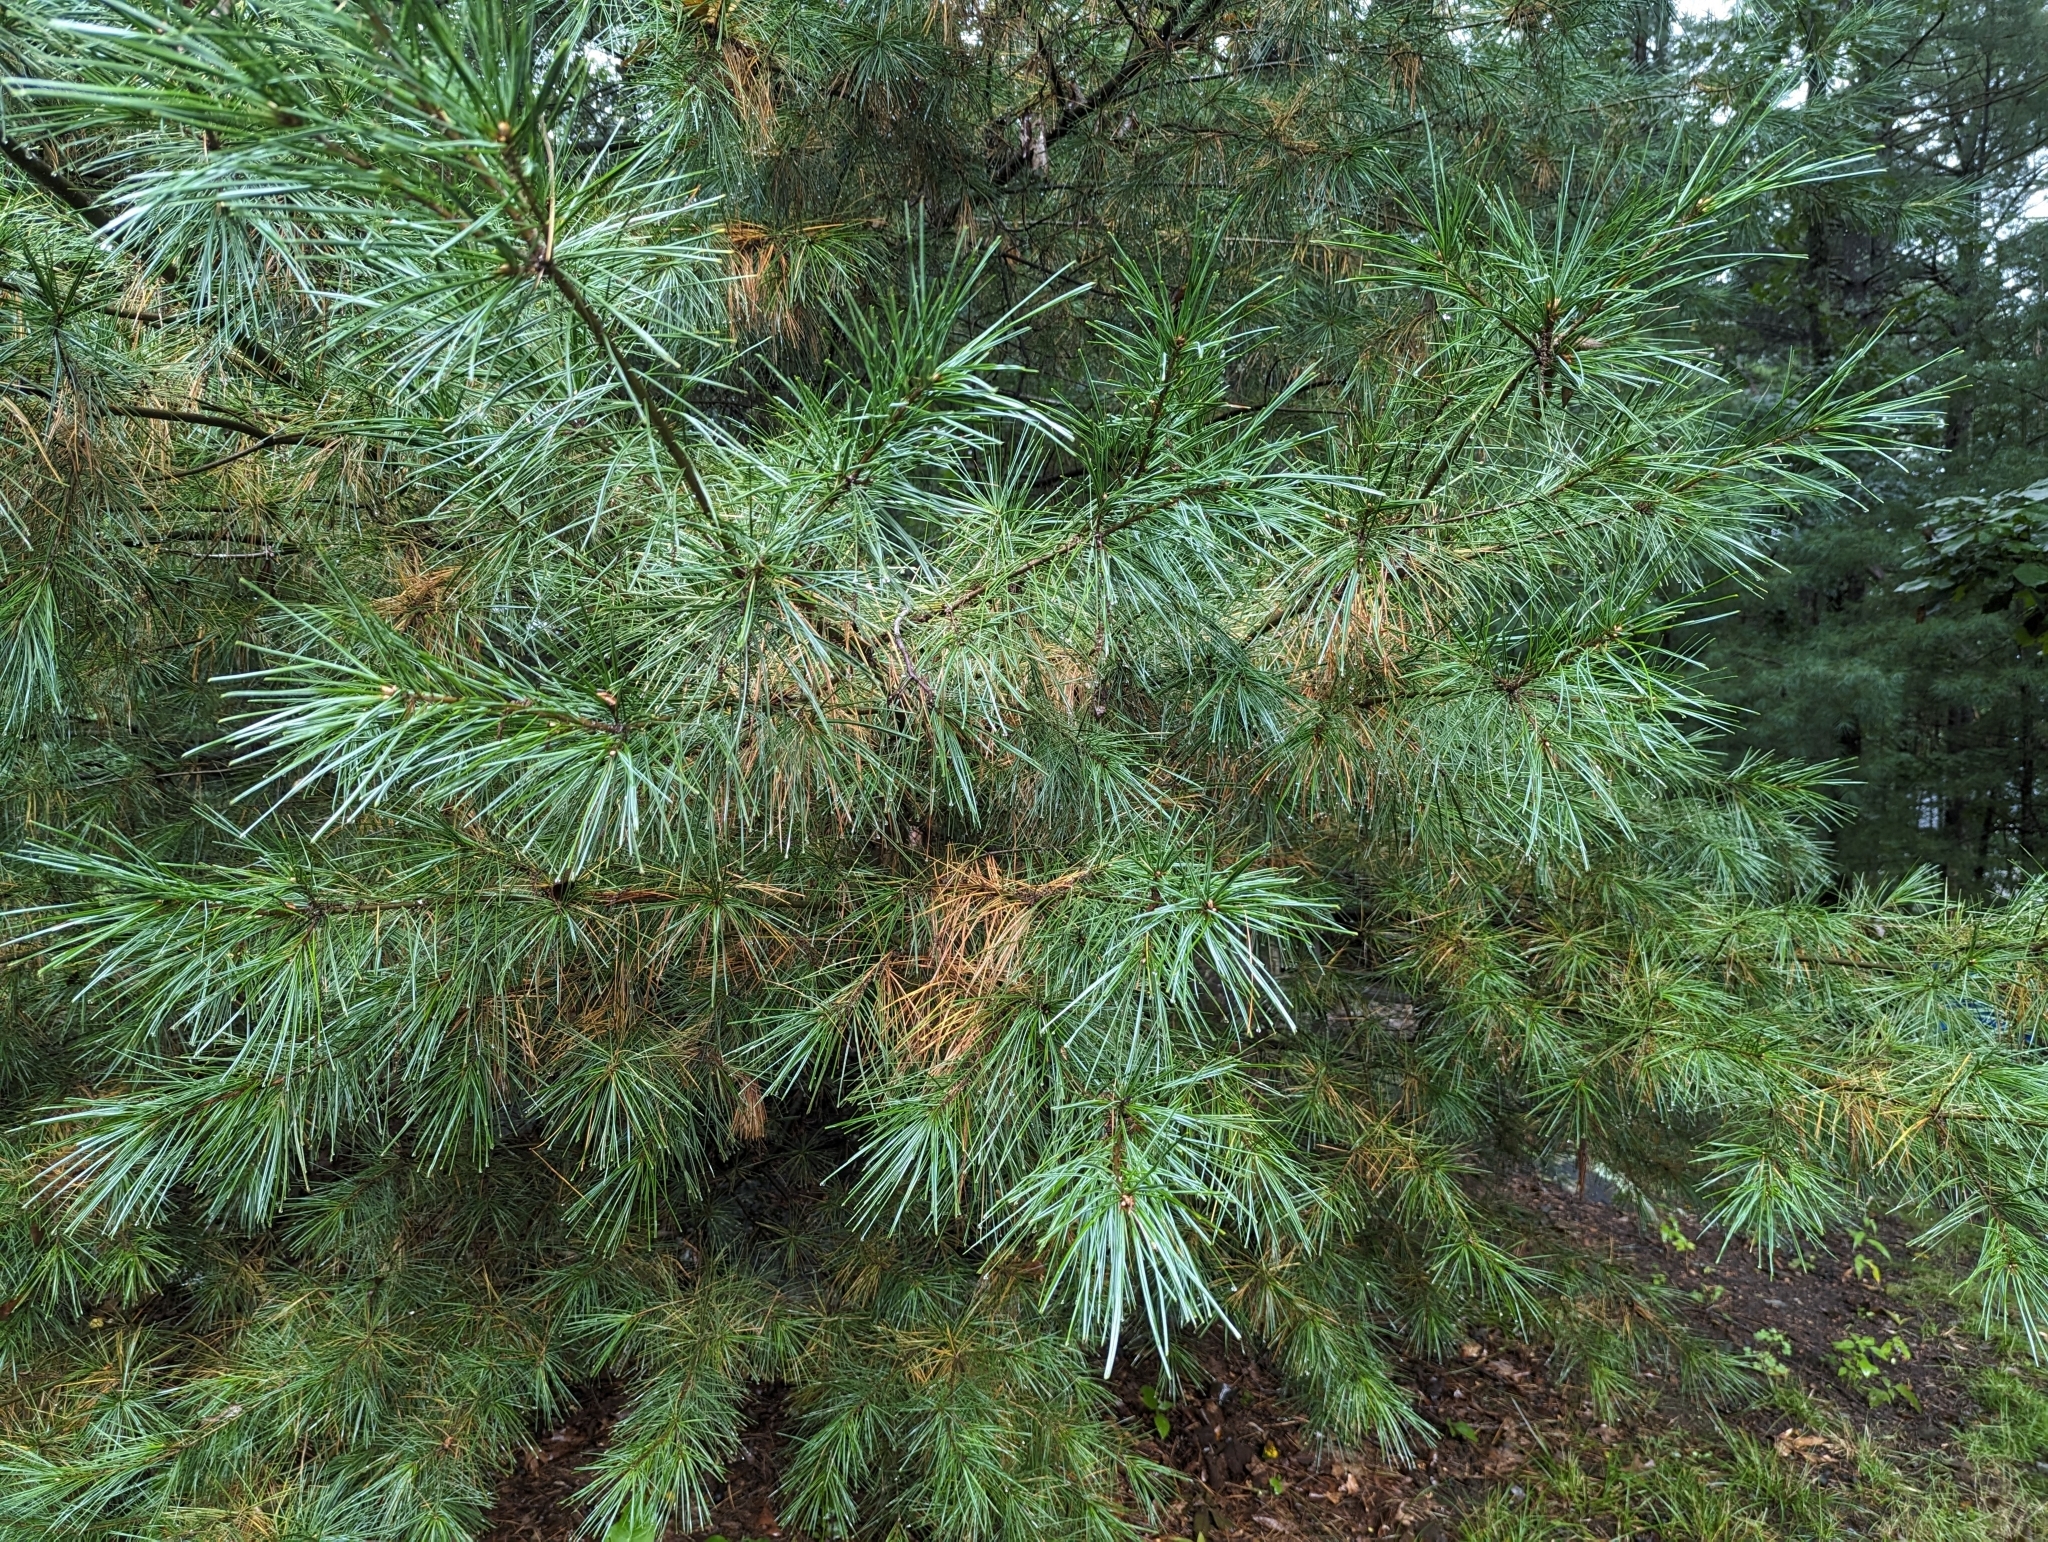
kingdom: Plantae
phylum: Tracheophyta
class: Pinopsida
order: Pinales
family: Pinaceae
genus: Pinus
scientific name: Pinus strobus
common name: Weymouth pine
